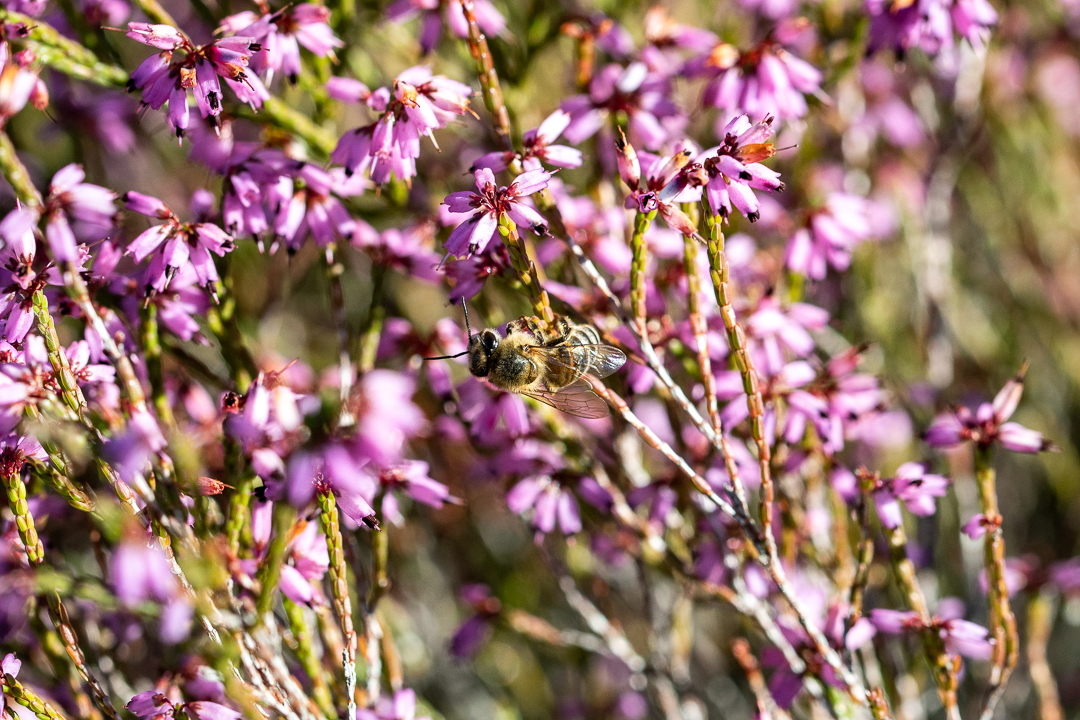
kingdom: Animalia
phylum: Arthropoda
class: Insecta
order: Hymenoptera
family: Apidae
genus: Apis
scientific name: Apis mellifera
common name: Honey bee
